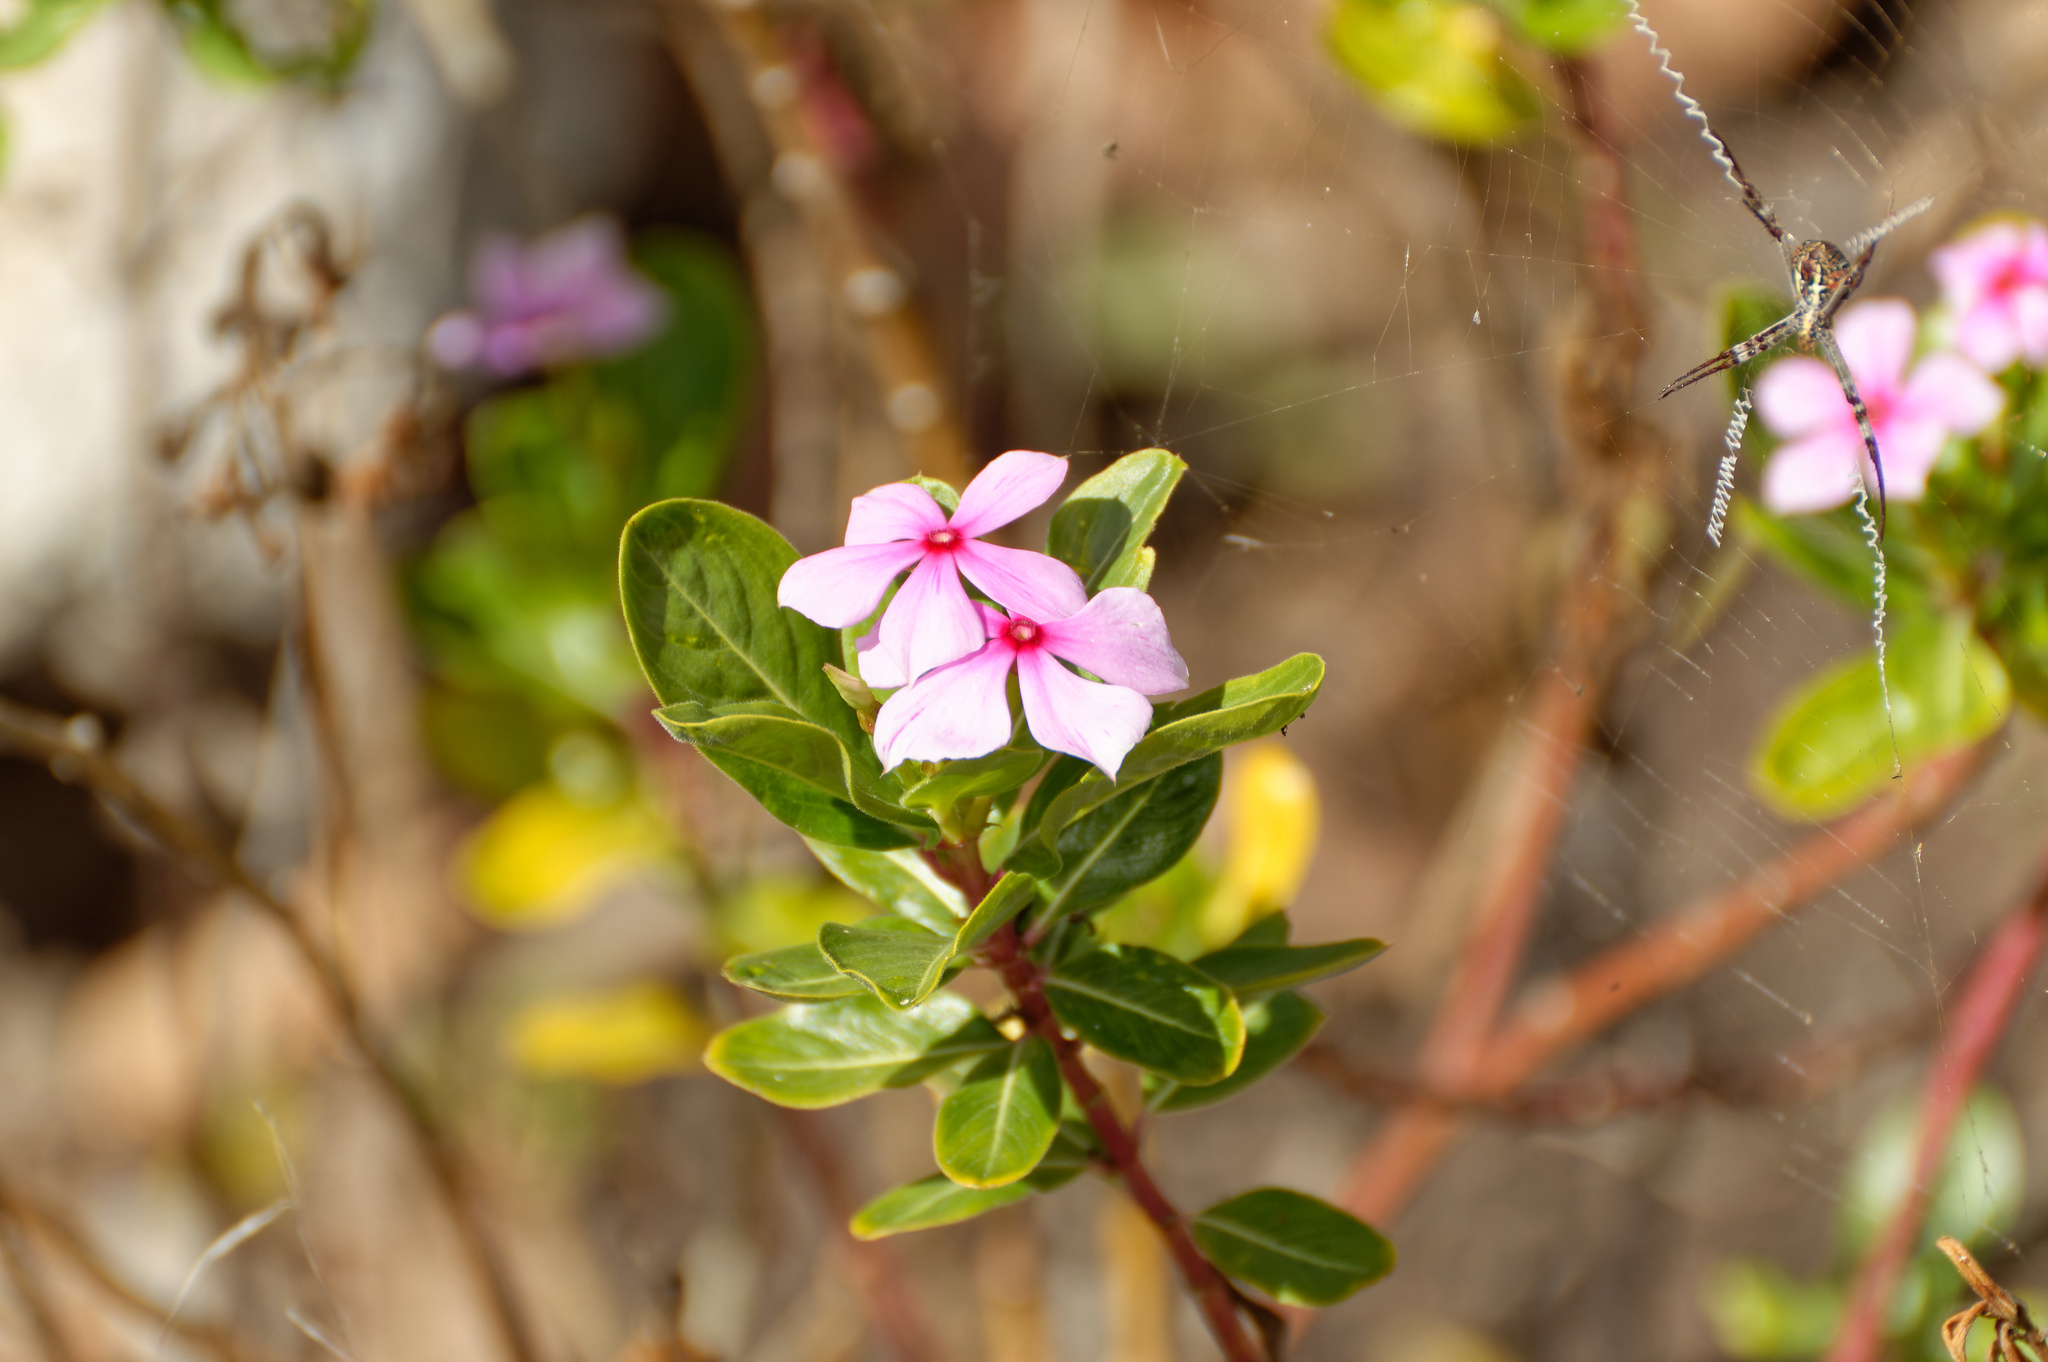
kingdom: Plantae
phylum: Tracheophyta
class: Magnoliopsida
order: Gentianales
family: Apocynaceae
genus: Catharanthus
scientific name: Catharanthus roseus
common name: Madagascar periwinkle
